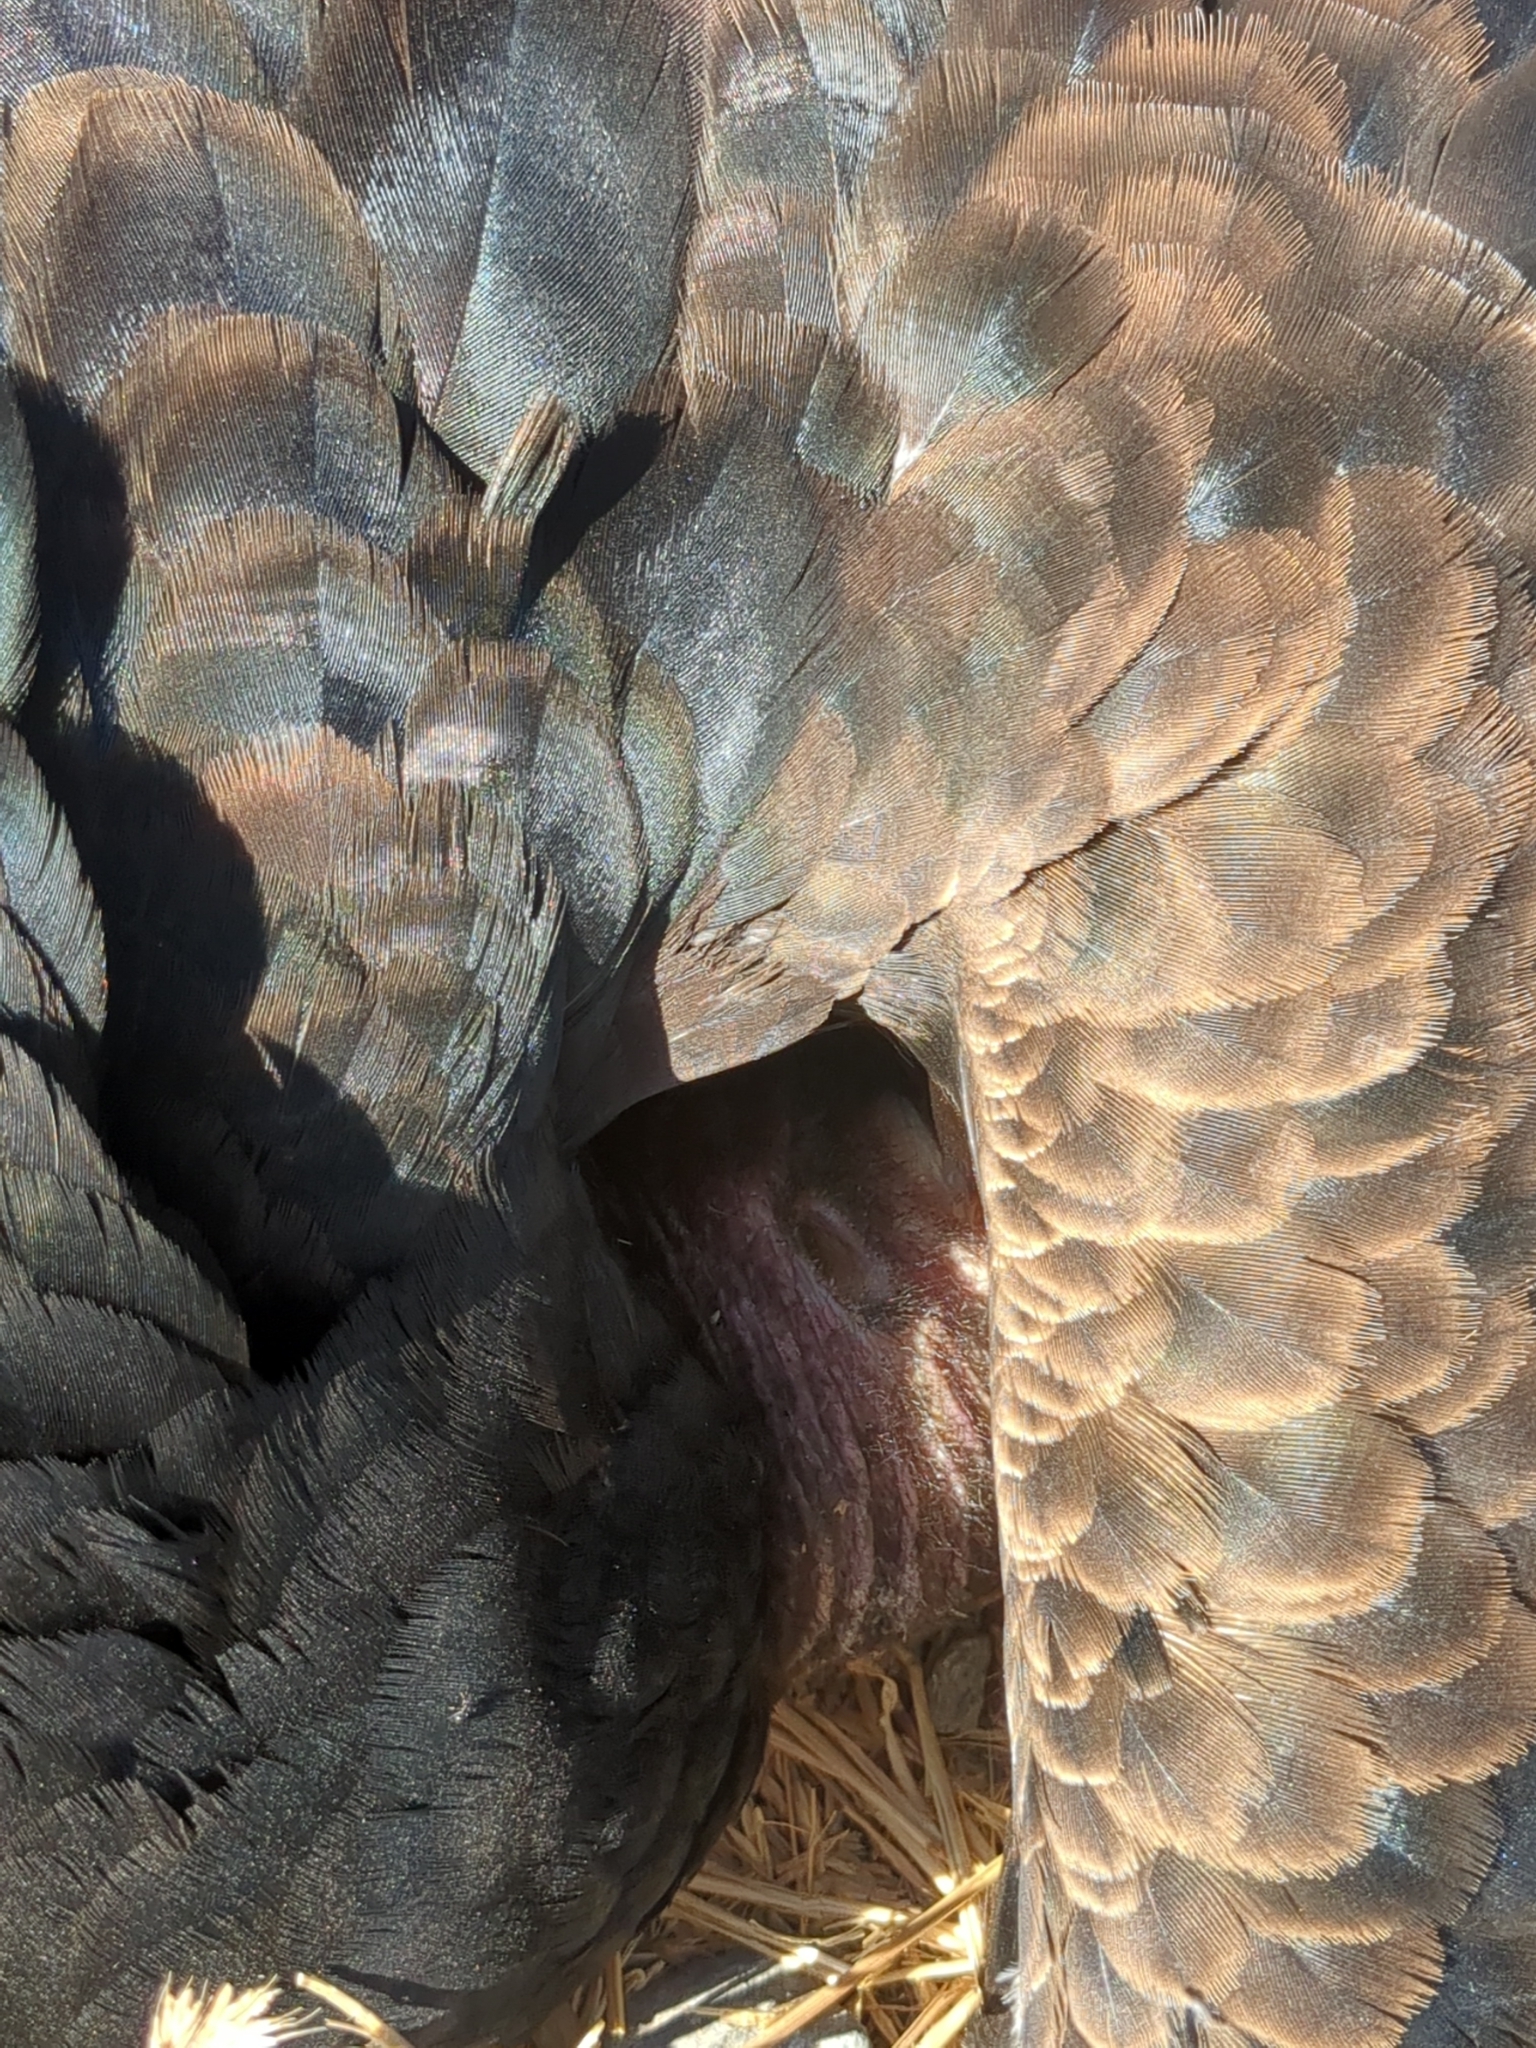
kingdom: Animalia
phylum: Chordata
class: Aves
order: Accipitriformes
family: Cathartidae
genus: Cathartes
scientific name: Cathartes aura
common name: Turkey vulture
